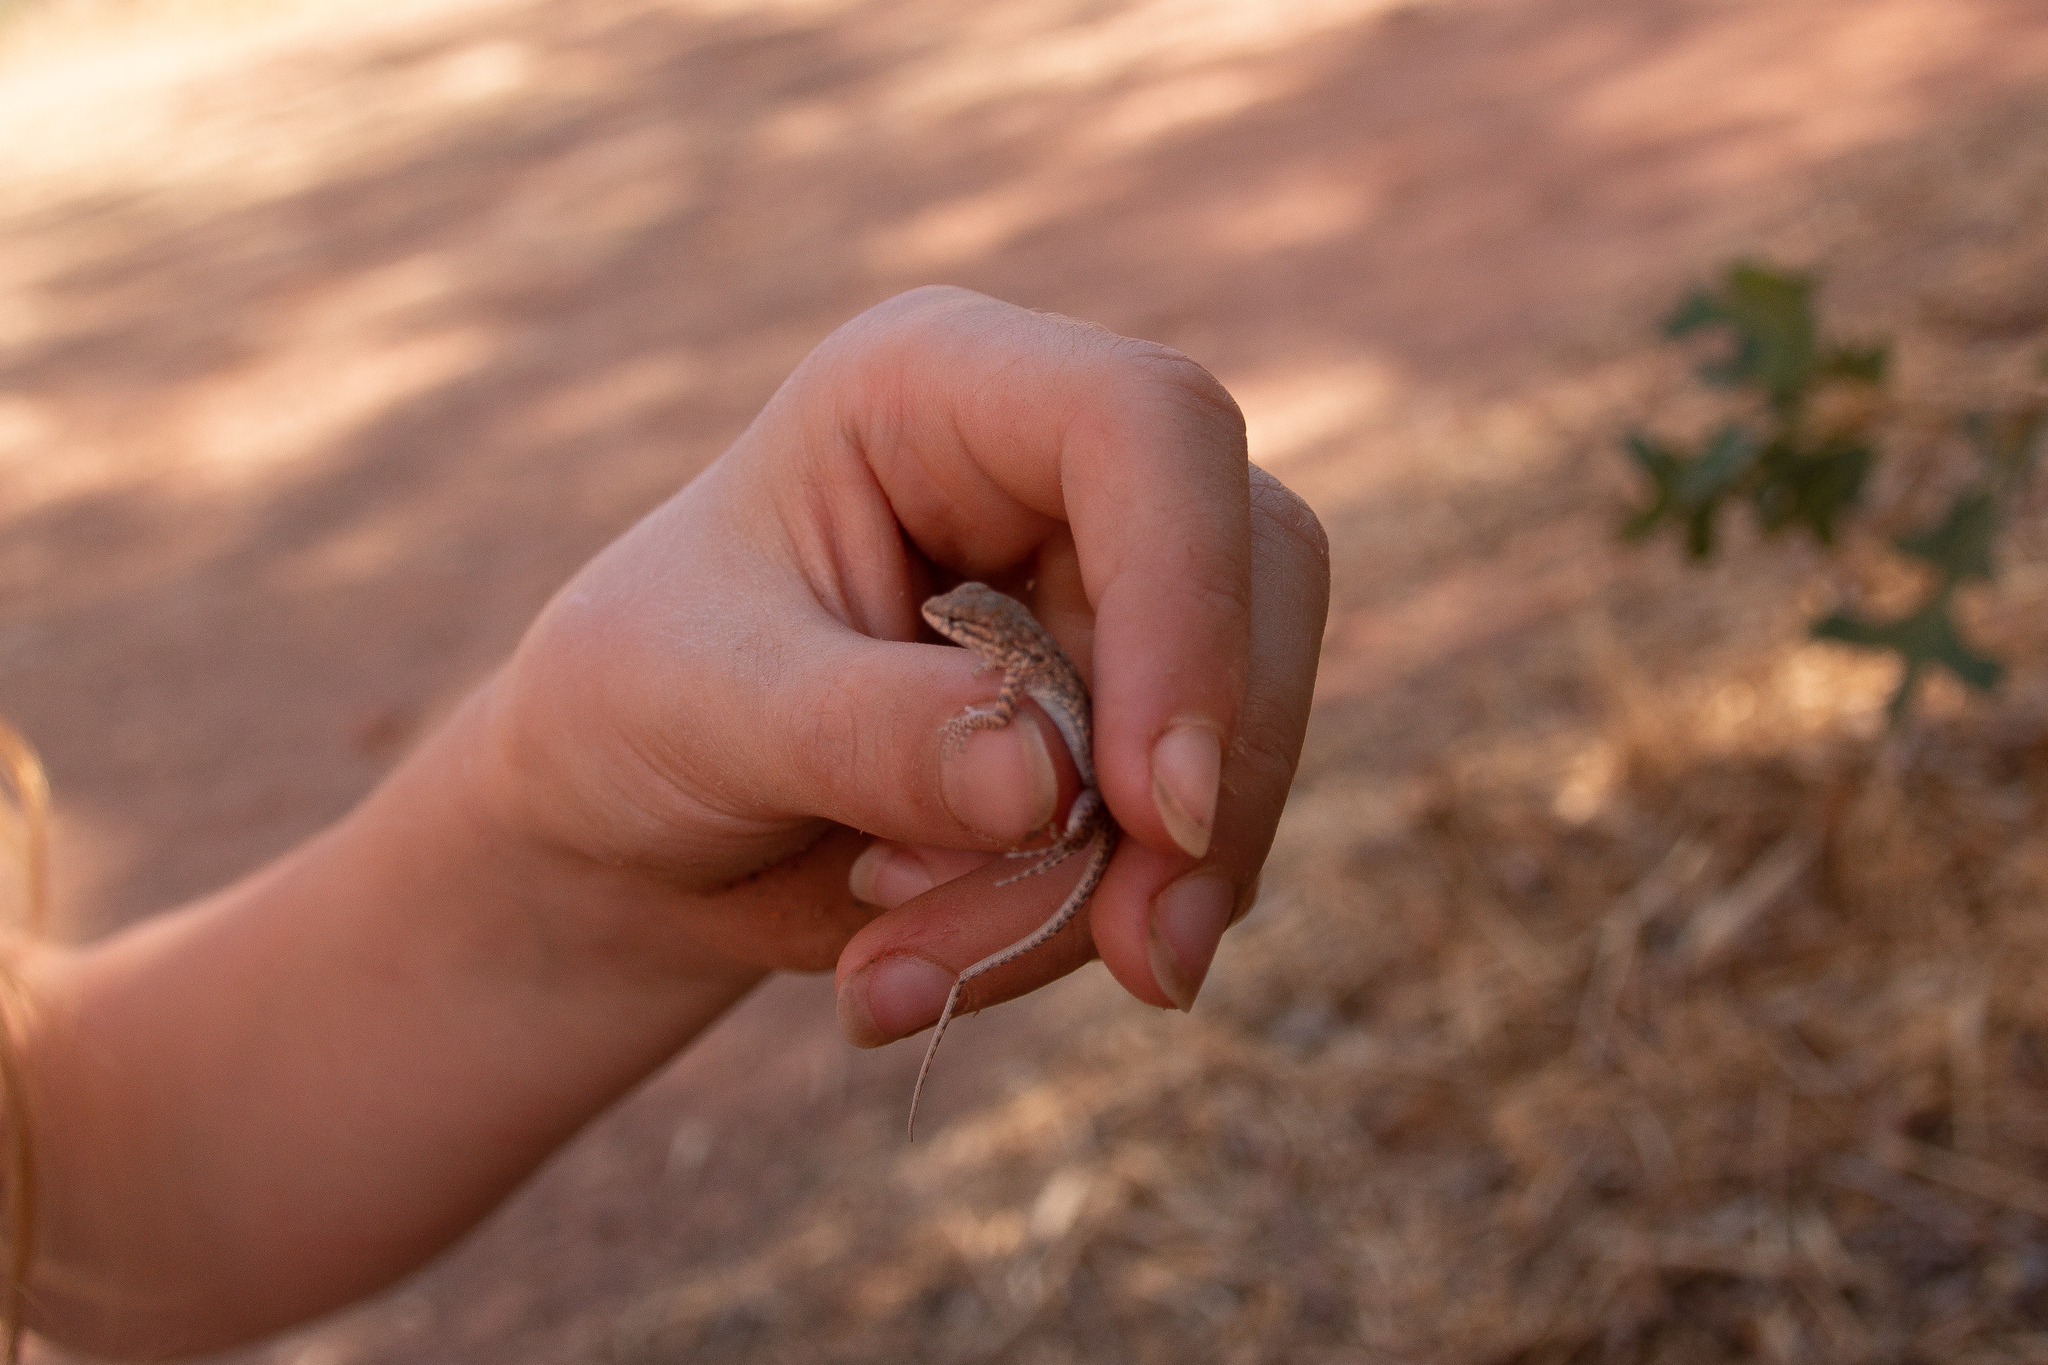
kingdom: Animalia
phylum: Chordata
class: Squamata
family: Phrynosomatidae
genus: Uta
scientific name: Uta stansburiana
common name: Side-blotched lizard
